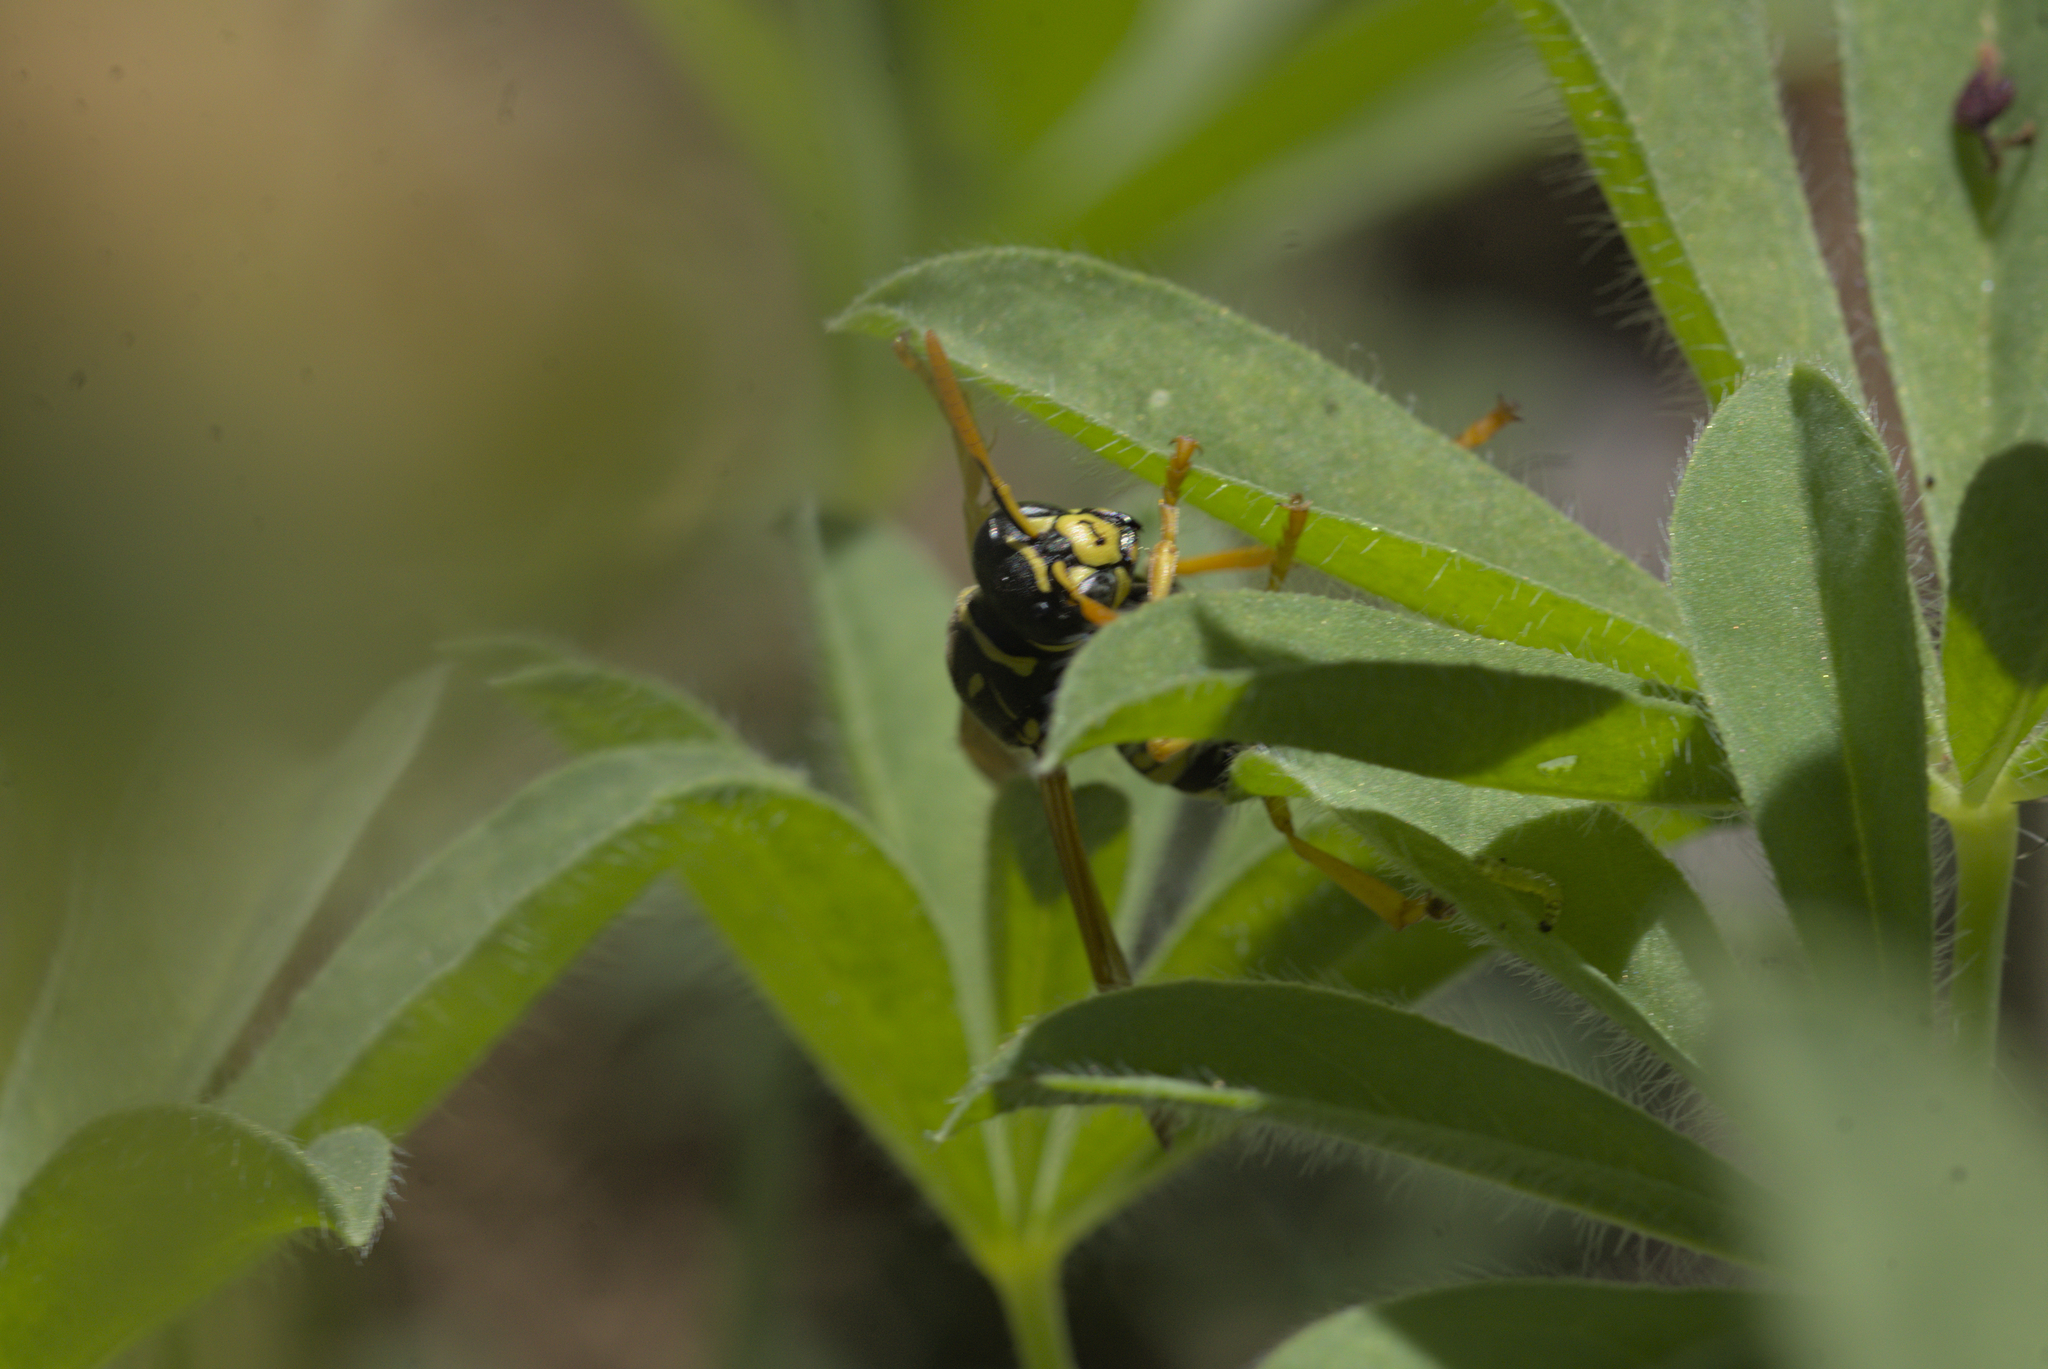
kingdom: Animalia
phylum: Arthropoda
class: Insecta
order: Hymenoptera
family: Eumenidae
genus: Polistes
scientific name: Polistes dominula
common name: Paper wasp
